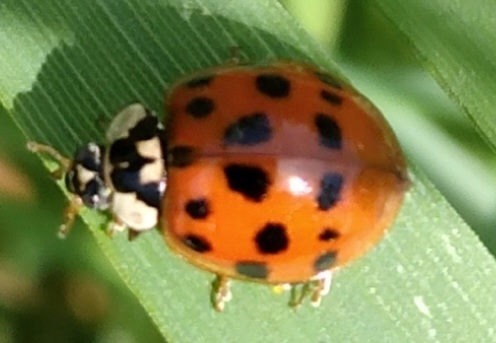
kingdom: Animalia
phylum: Arthropoda
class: Insecta
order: Coleoptera
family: Coccinellidae
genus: Harmonia
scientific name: Harmonia axyridis
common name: Harlequin ladybird
